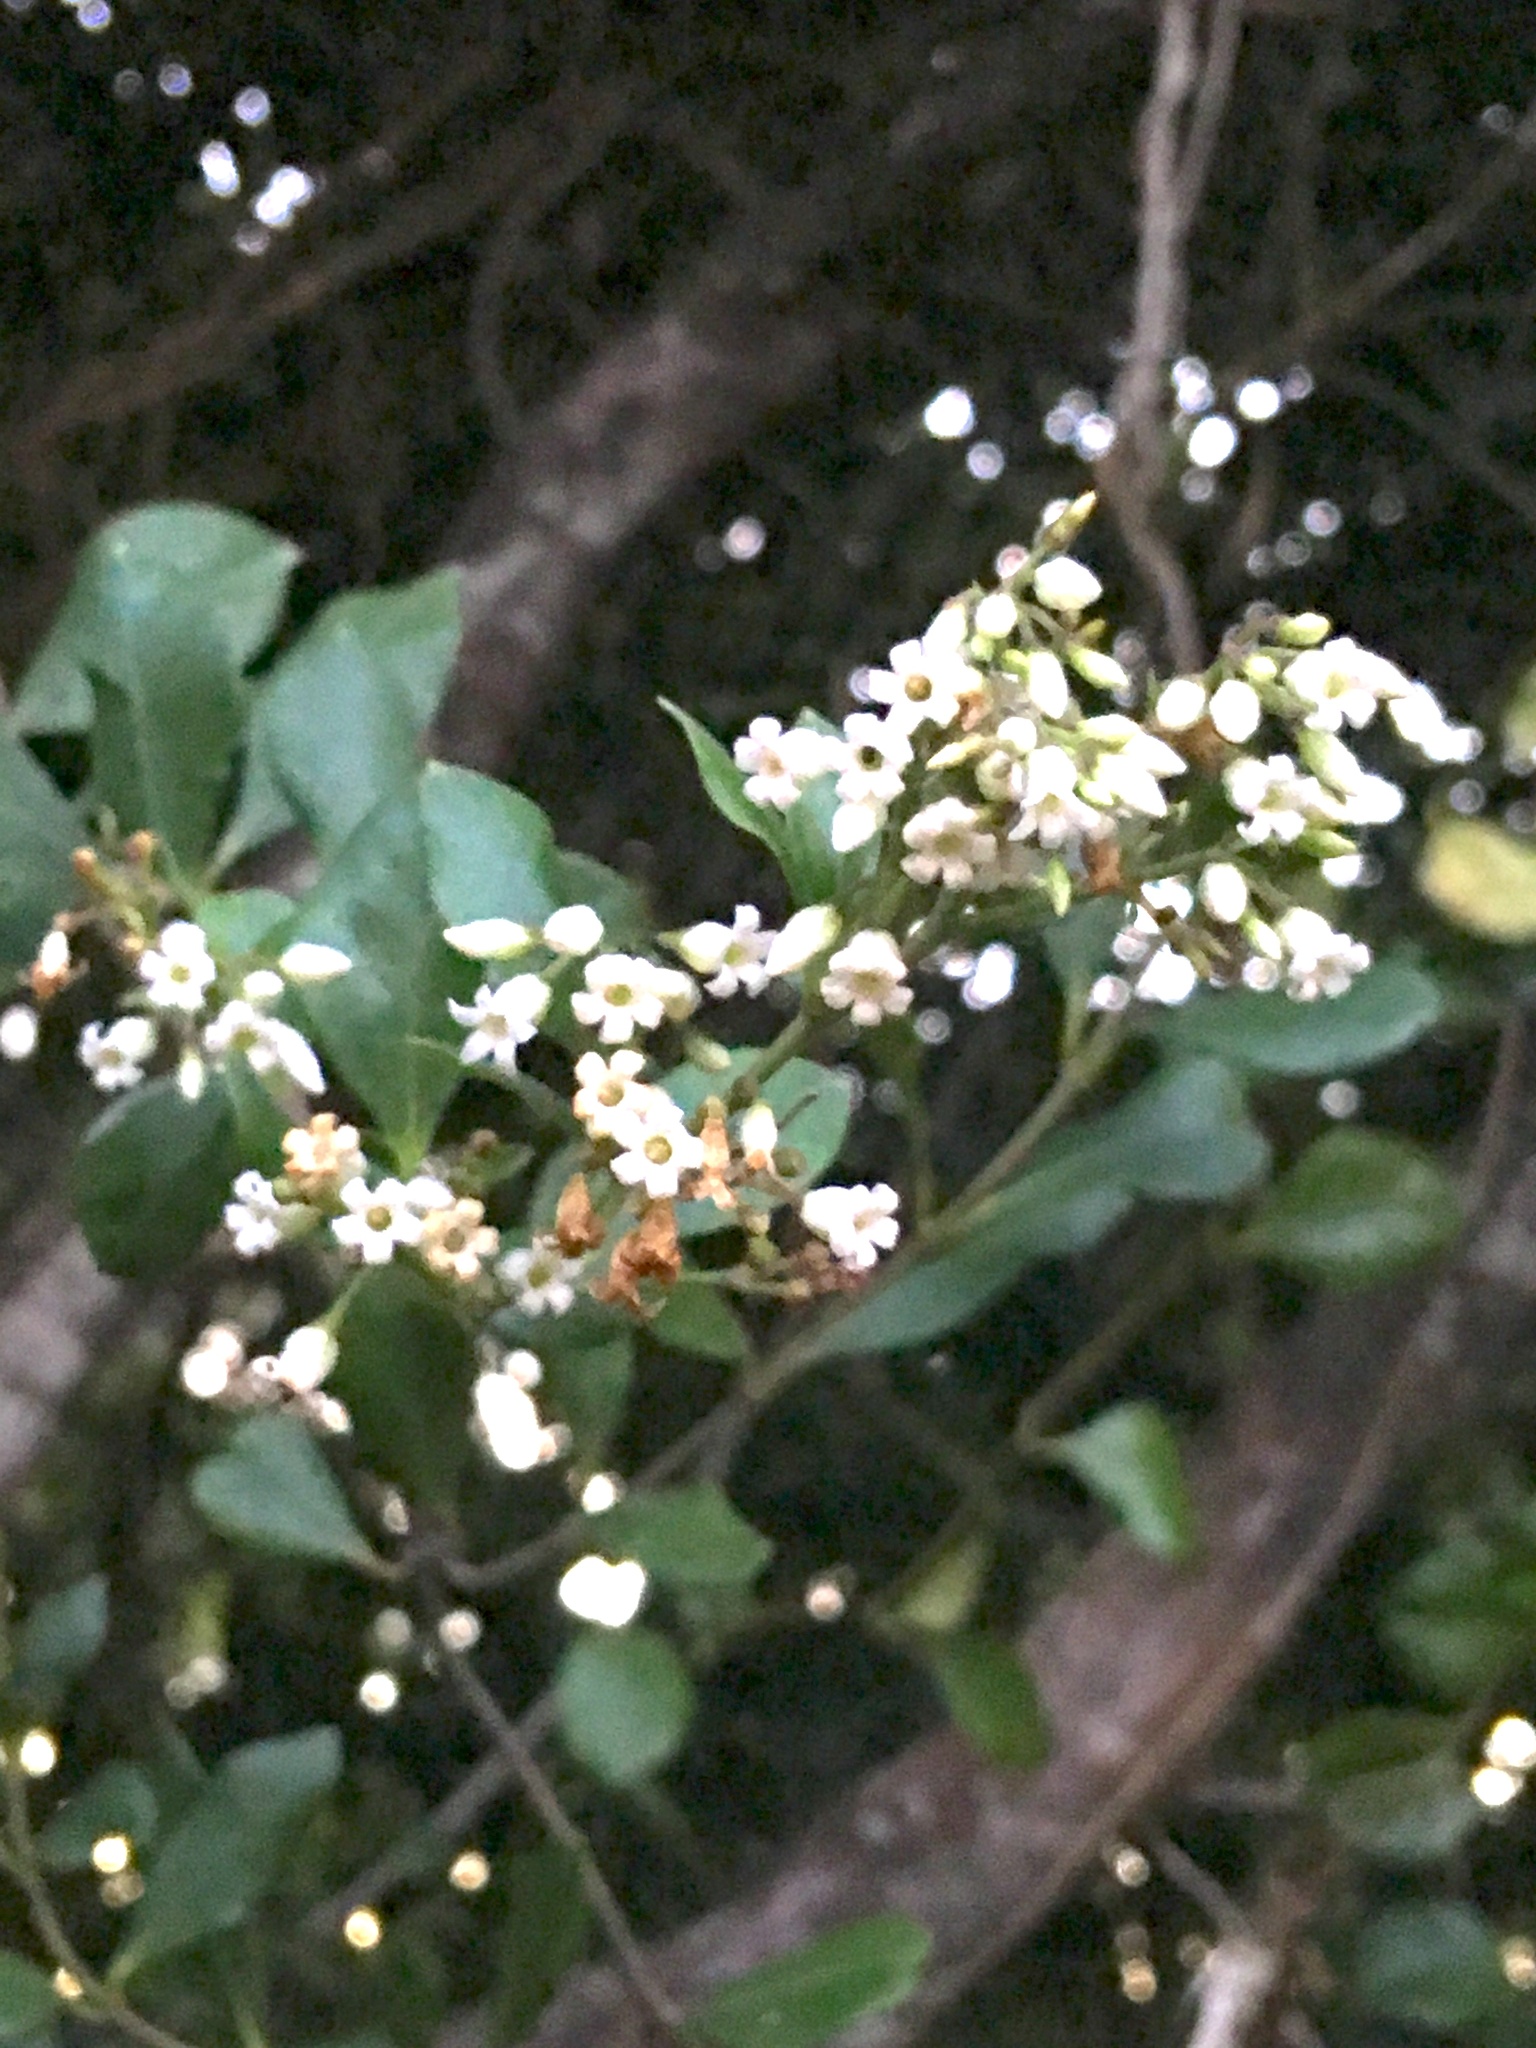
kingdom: Plantae
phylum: Tracheophyta
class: Magnoliopsida
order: Gentianales
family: Apocynaceae
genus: Parsonsia
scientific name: Parsonsia heterophylla
